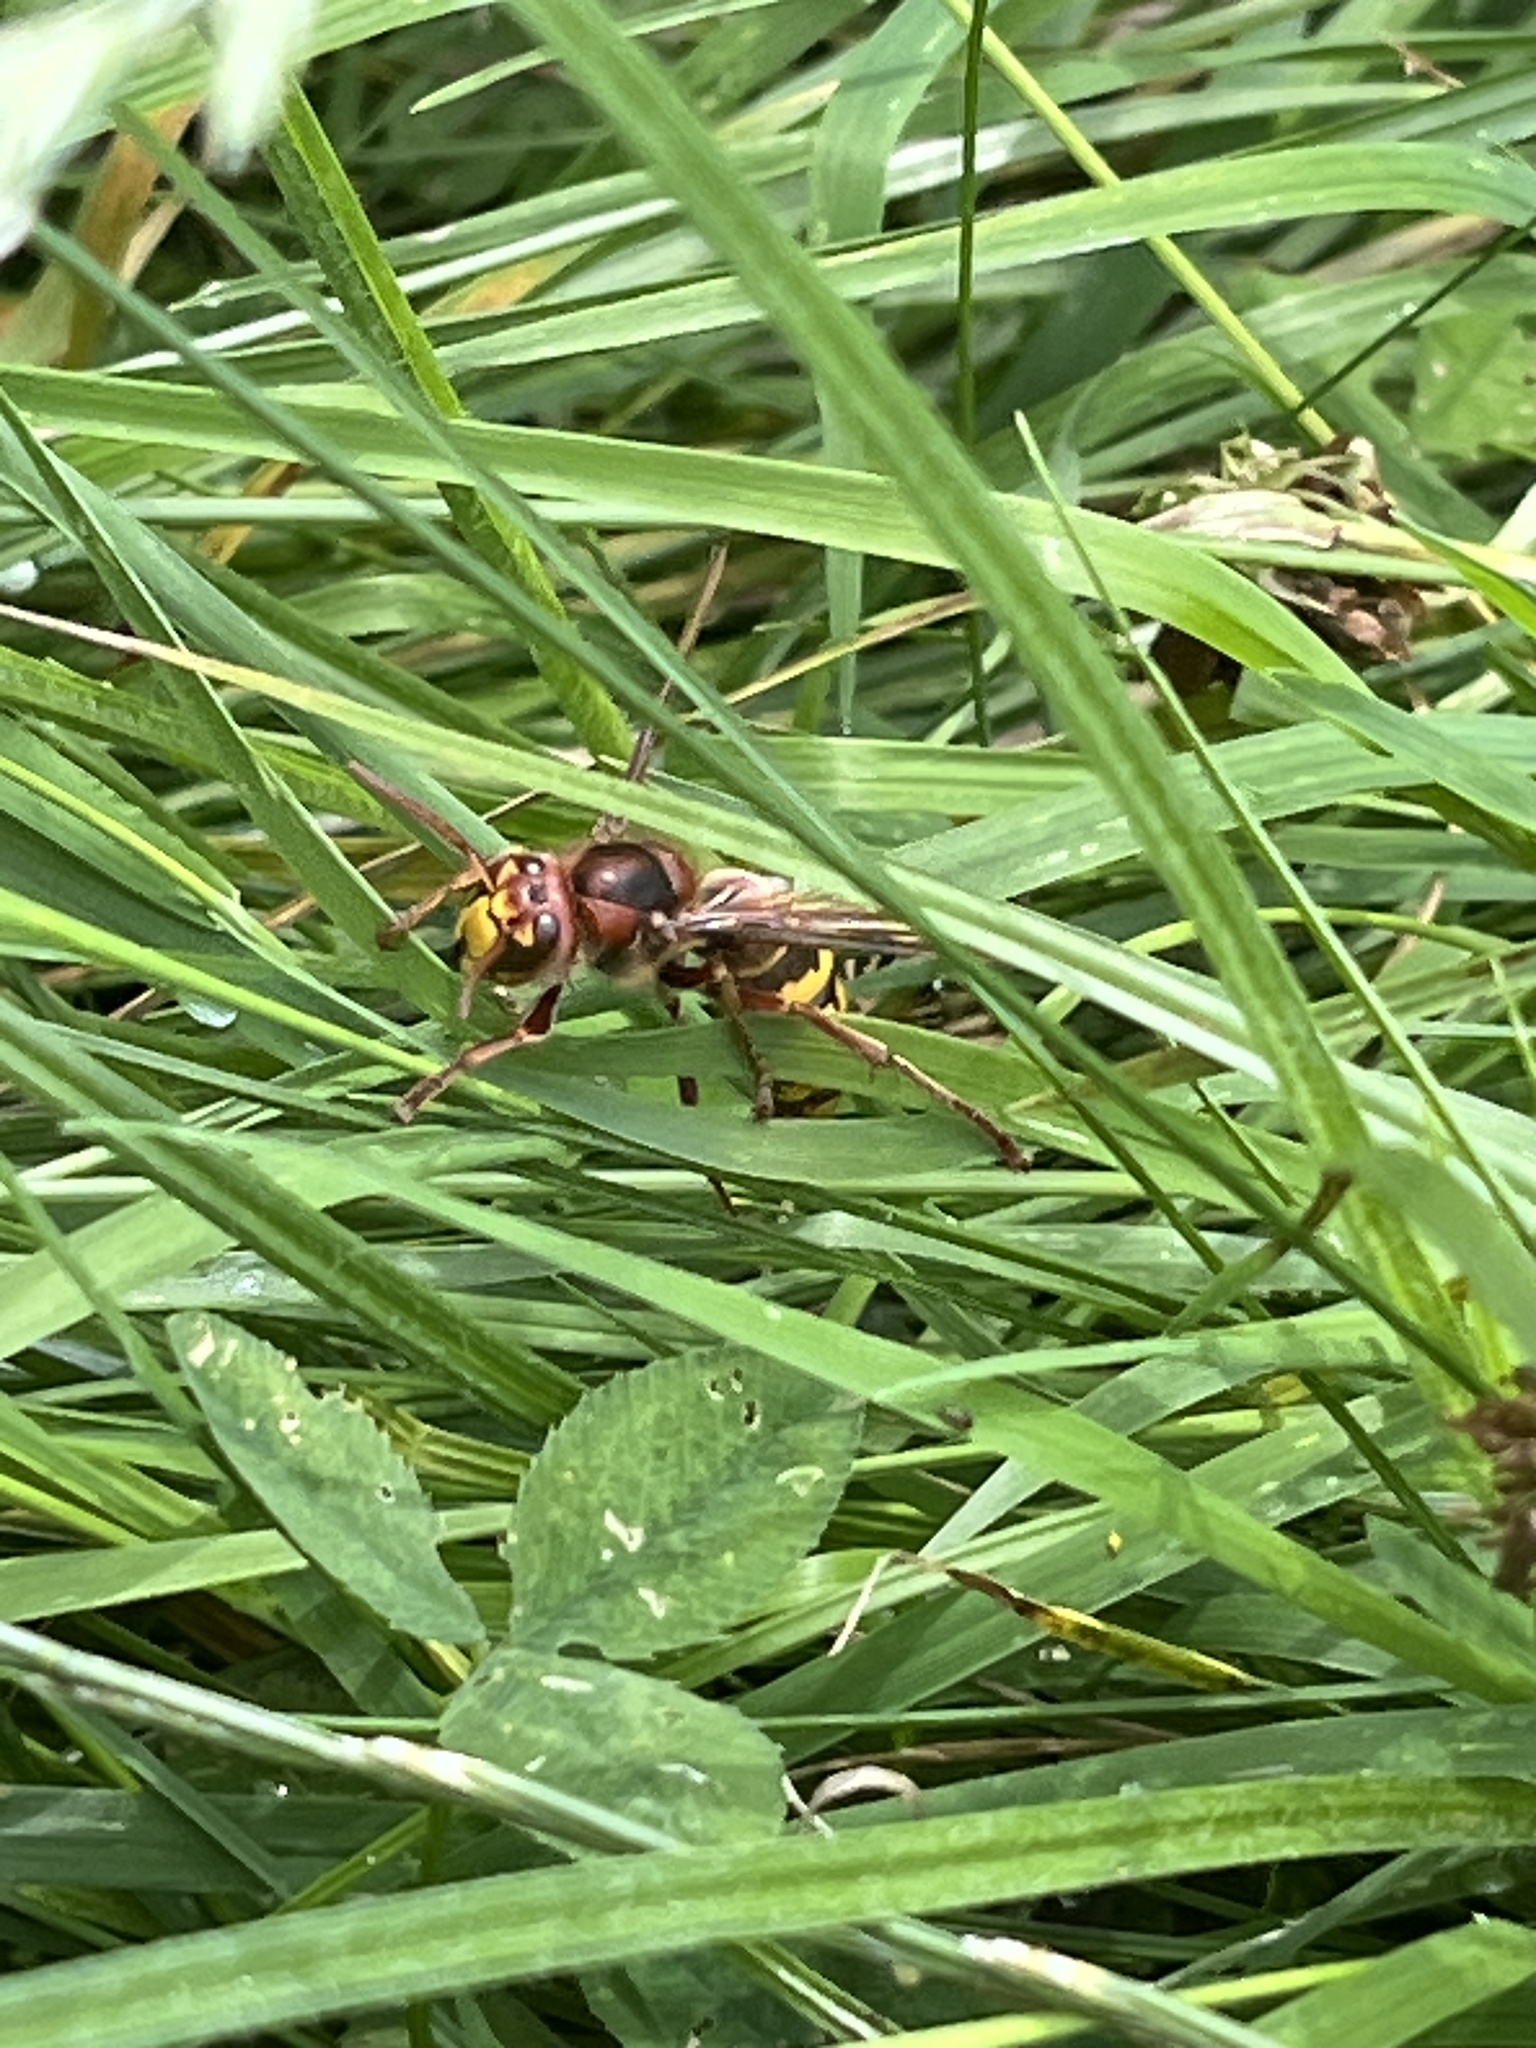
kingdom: Animalia
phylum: Arthropoda
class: Insecta
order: Hymenoptera
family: Vespidae
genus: Vespa
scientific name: Vespa crabro
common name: Hornet
